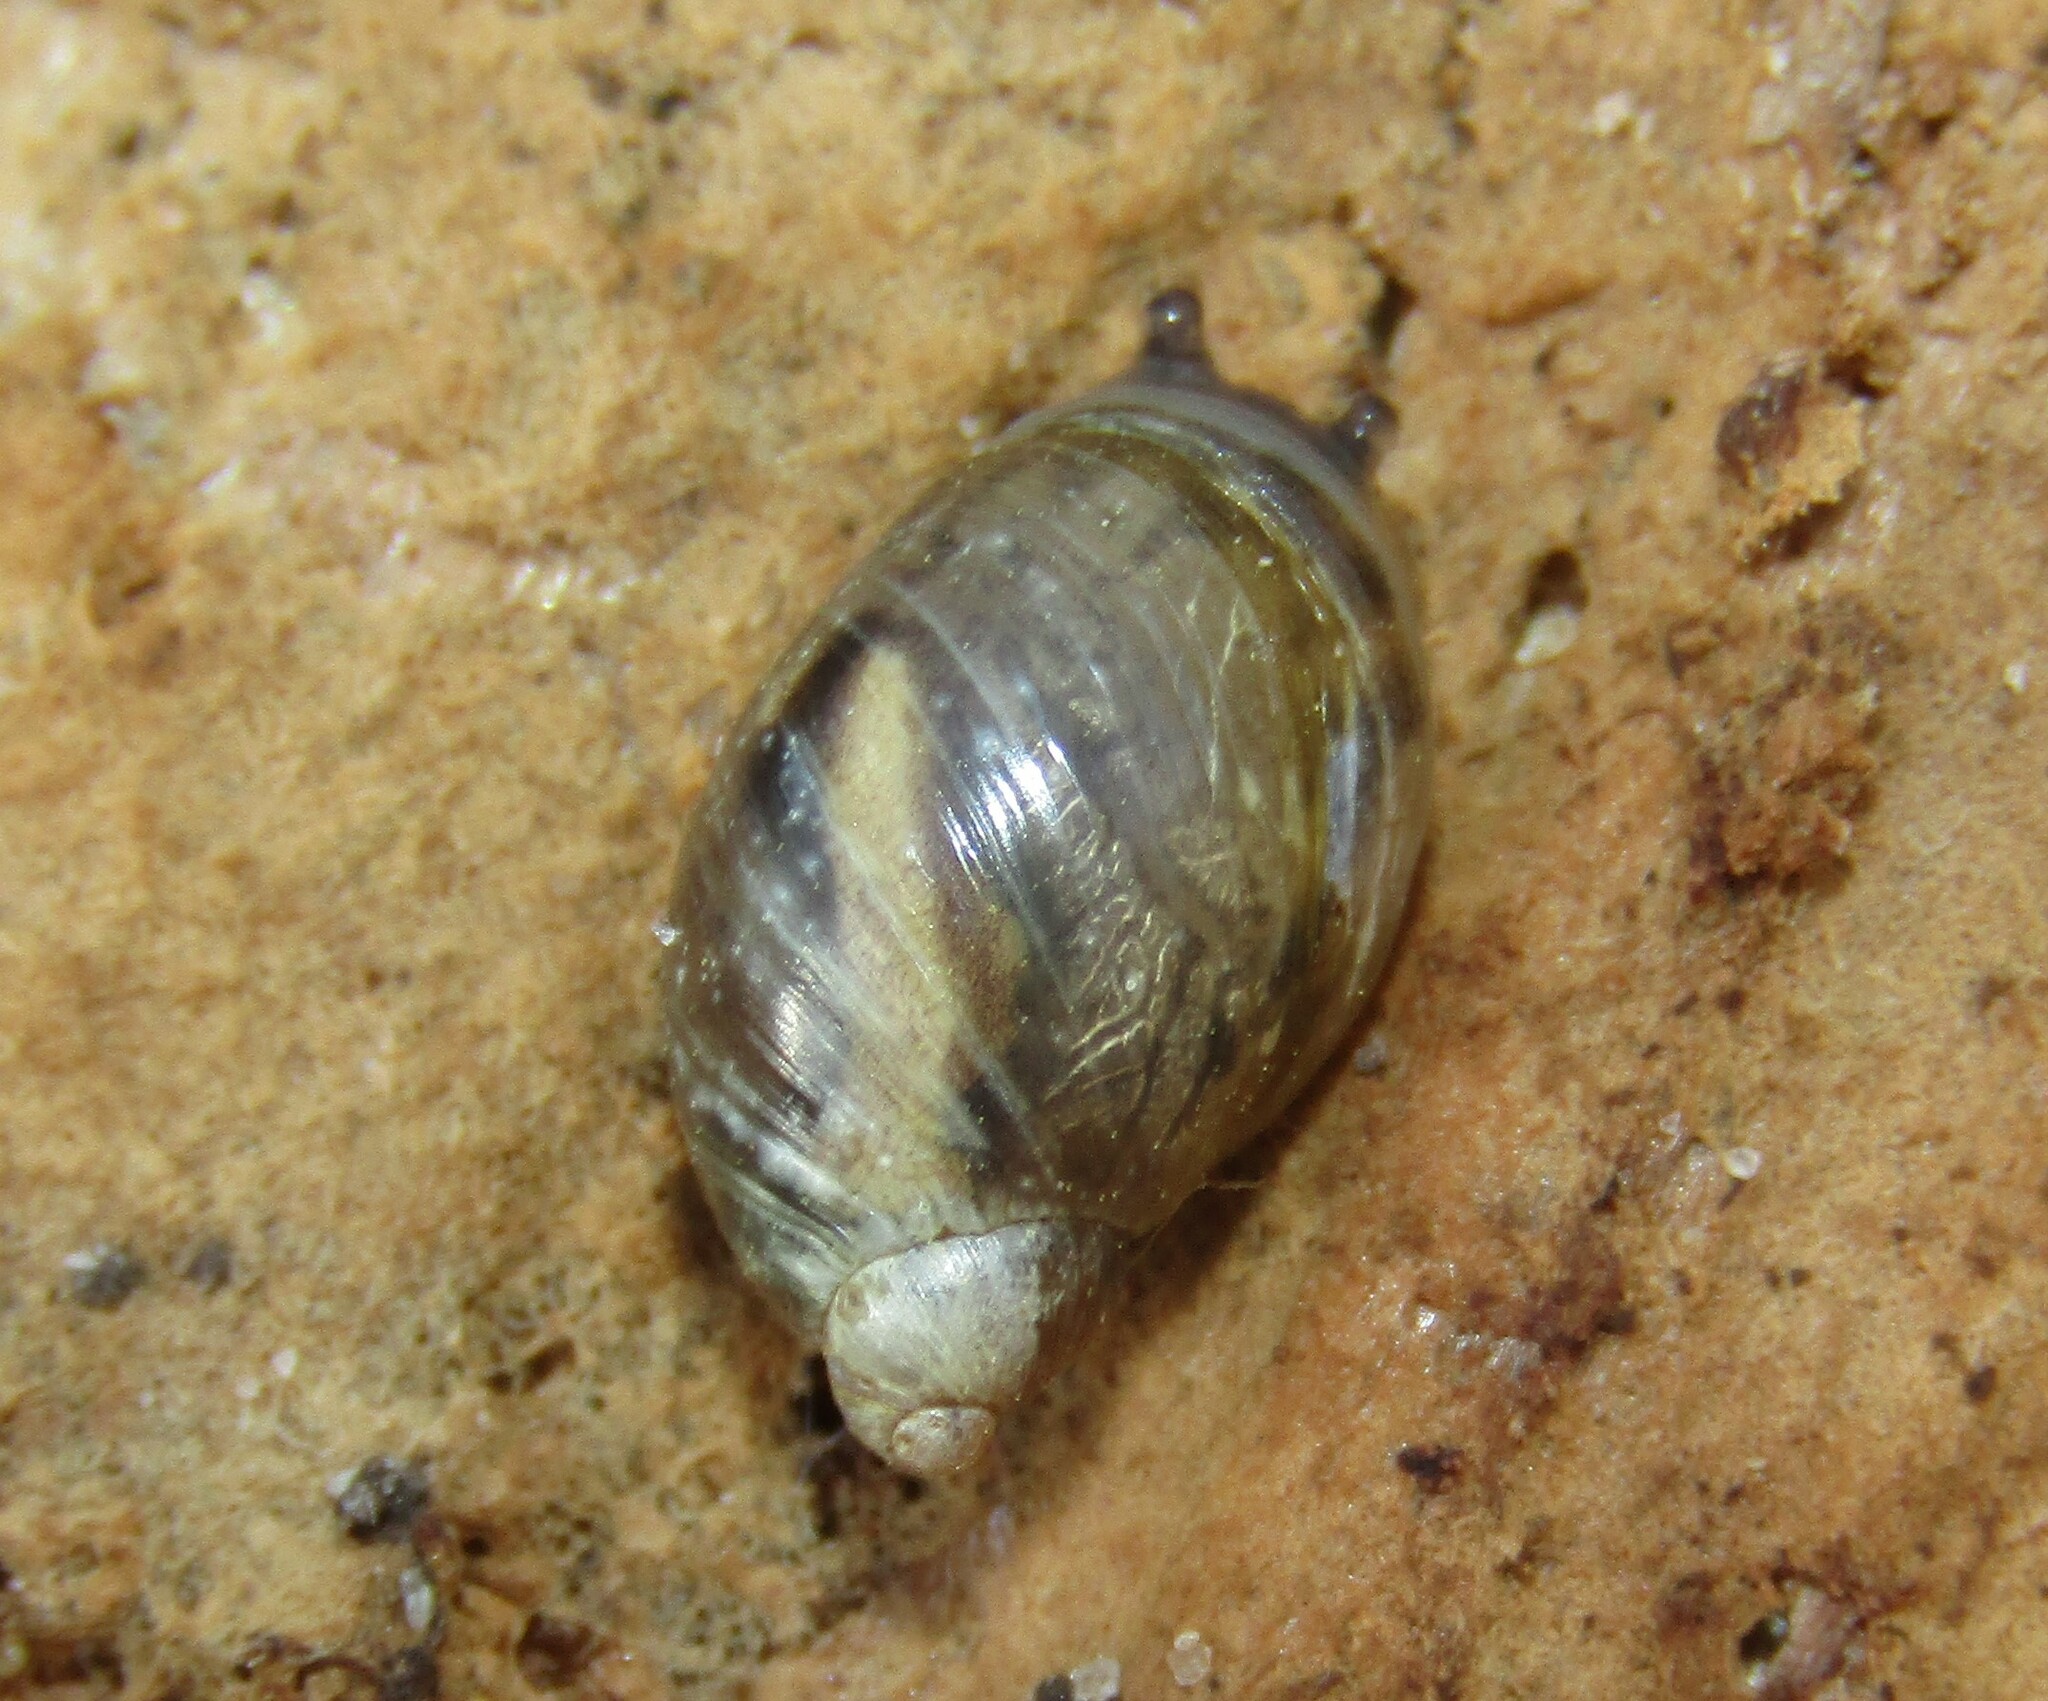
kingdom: Animalia
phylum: Mollusca
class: Gastropoda
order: Stylommatophora
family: Succineidae
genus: Succinea
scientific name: Succinea putris
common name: European ambersnail
